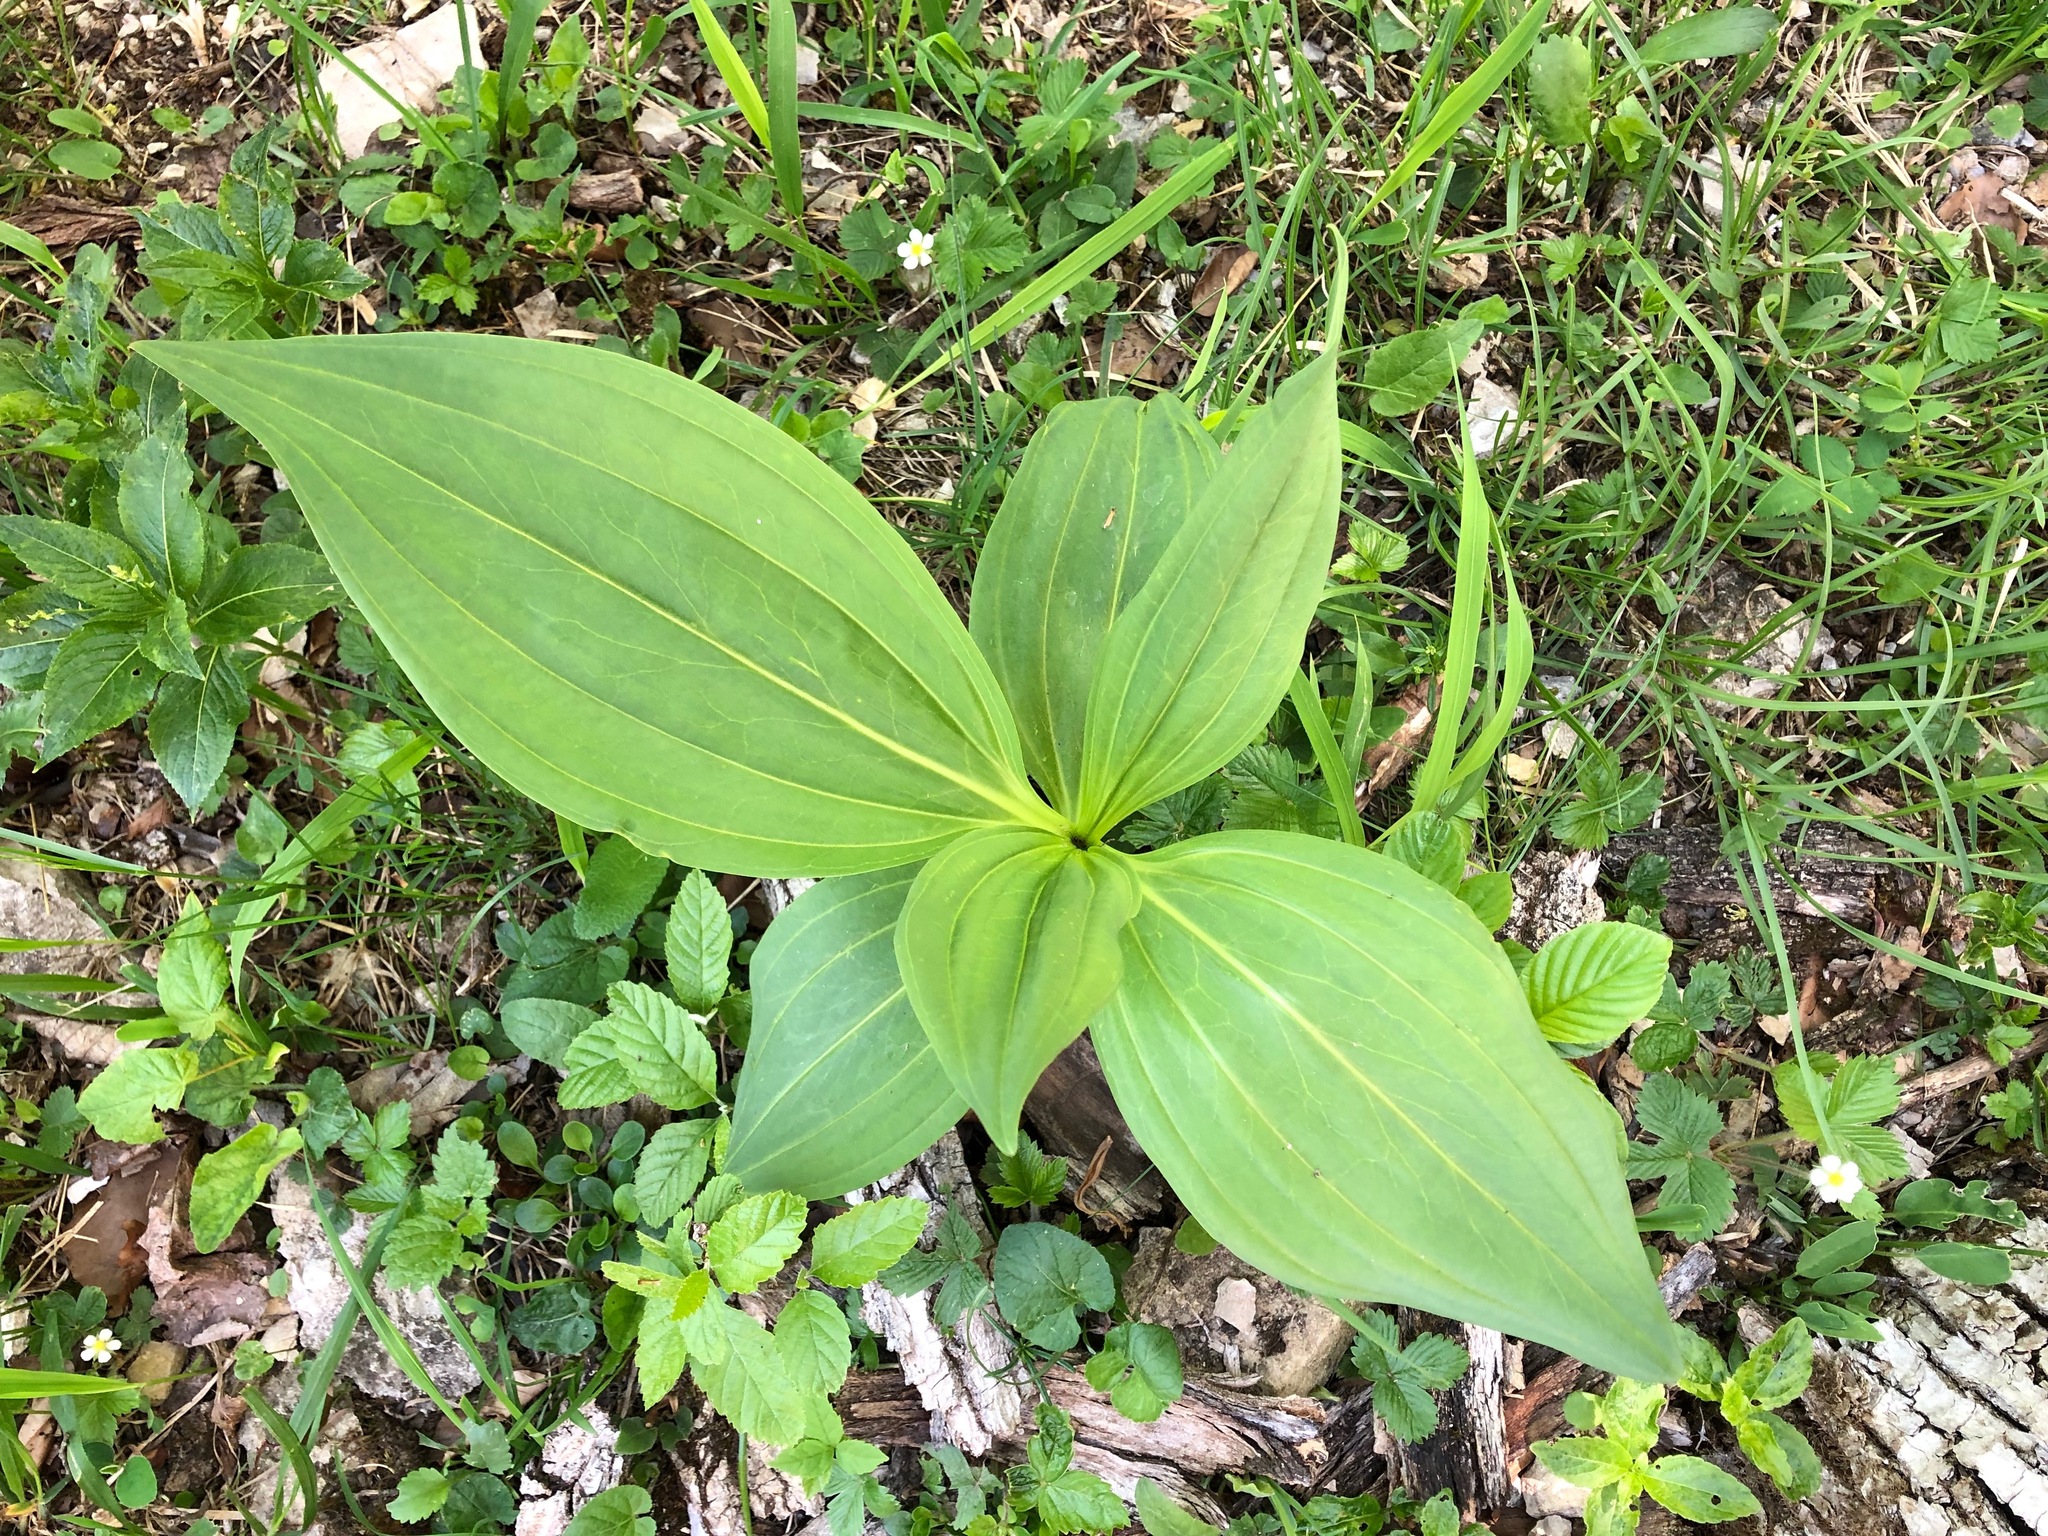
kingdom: Plantae
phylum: Tracheophyta
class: Magnoliopsida
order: Gentianales
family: Gentianaceae
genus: Gentiana
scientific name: Gentiana lutea
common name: Great yellow gentian
